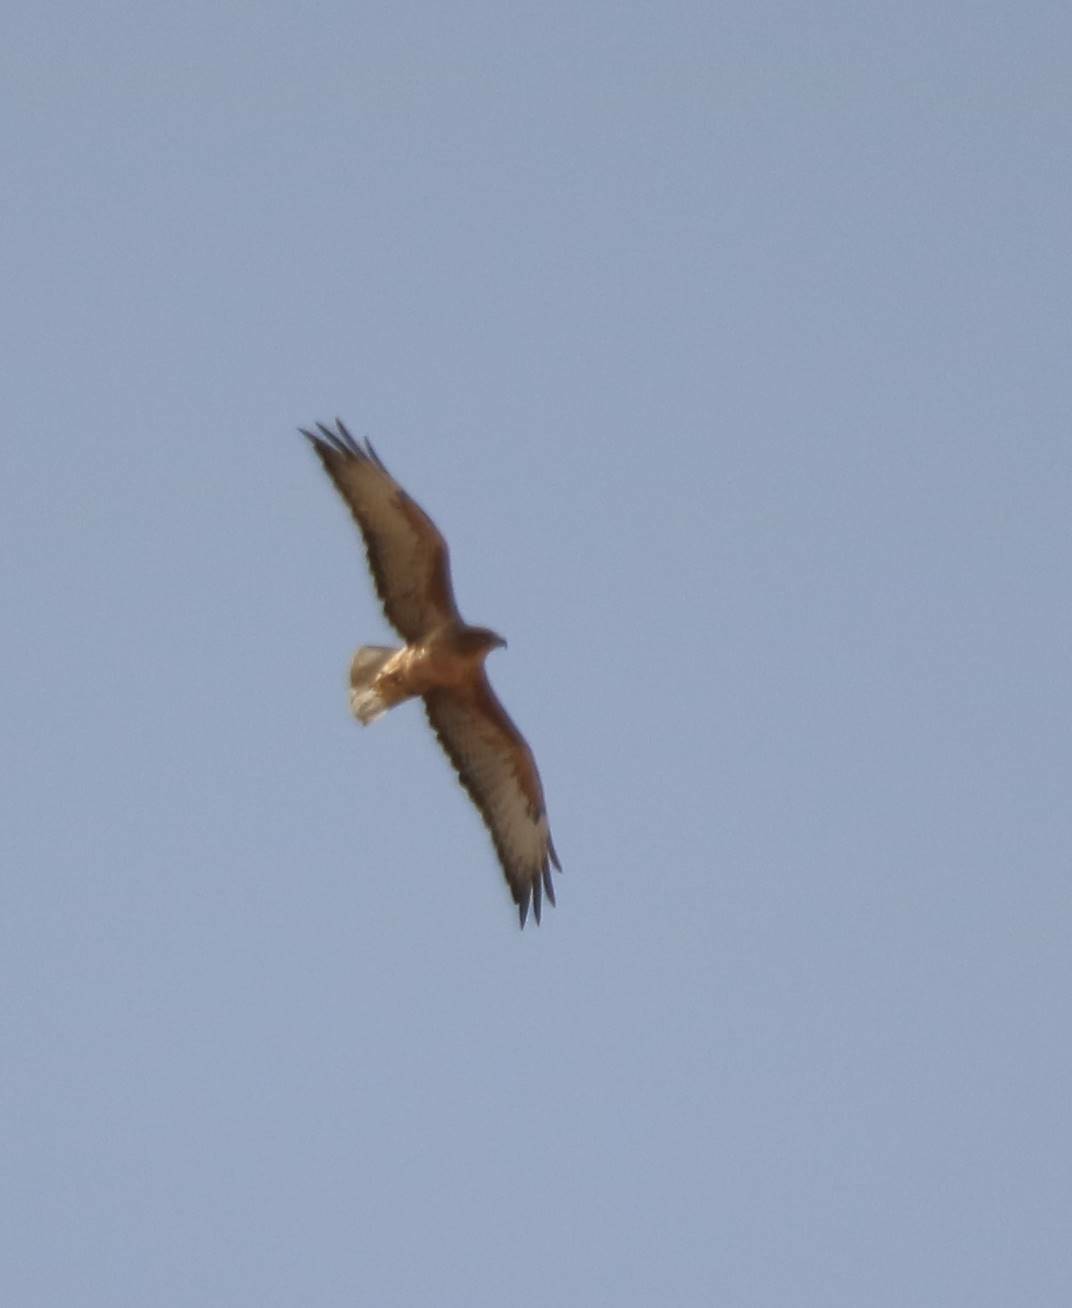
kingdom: Animalia
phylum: Chordata
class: Aves
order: Accipitriformes
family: Accipitridae
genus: Buteo
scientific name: Buteo rufinus
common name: Long-legged buzzard
